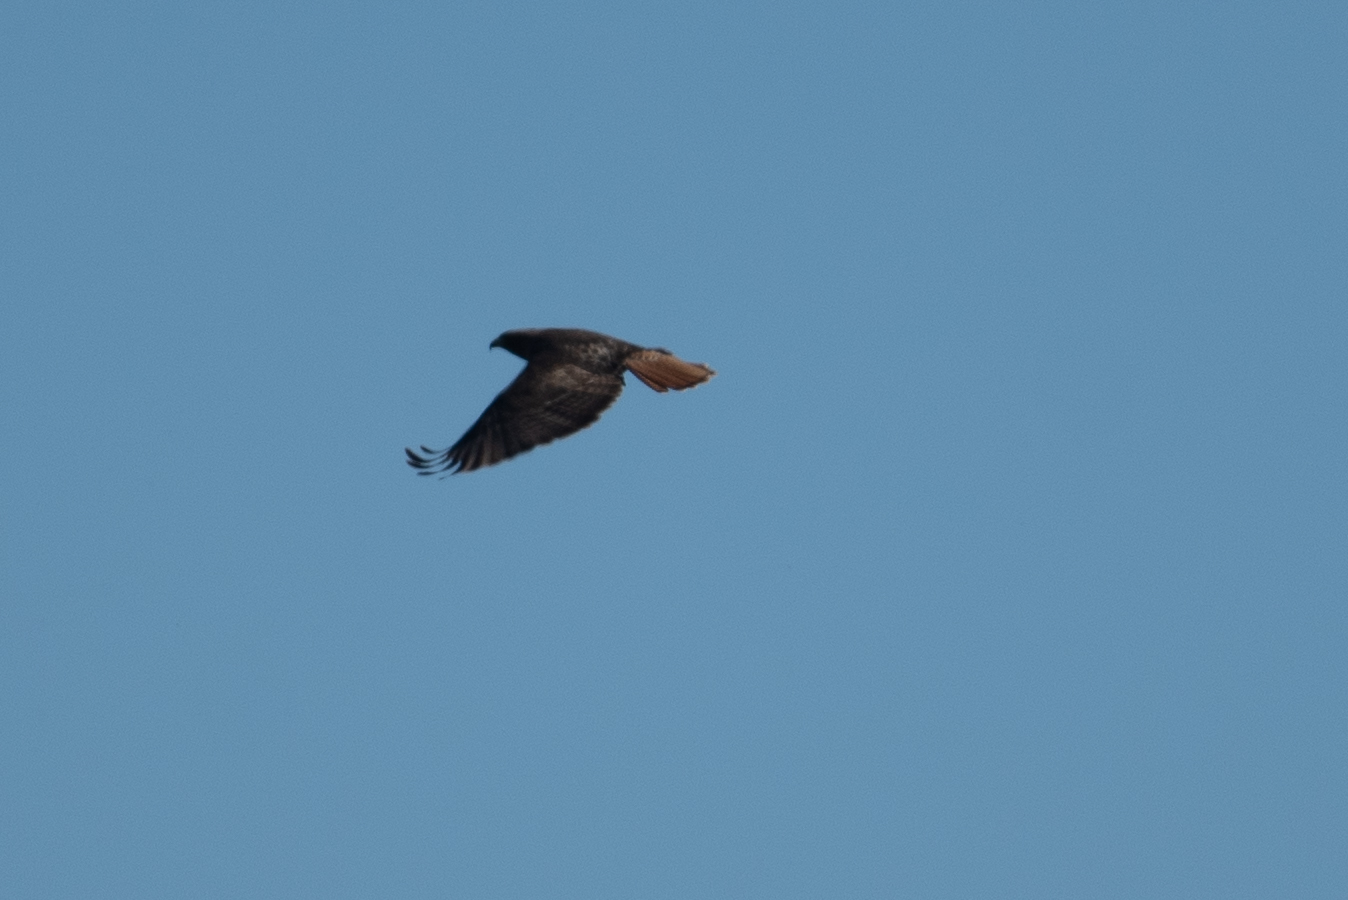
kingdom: Animalia
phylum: Chordata
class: Aves
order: Accipitriformes
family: Accipitridae
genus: Buteo
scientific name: Buteo jamaicensis
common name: Red-tailed hawk
